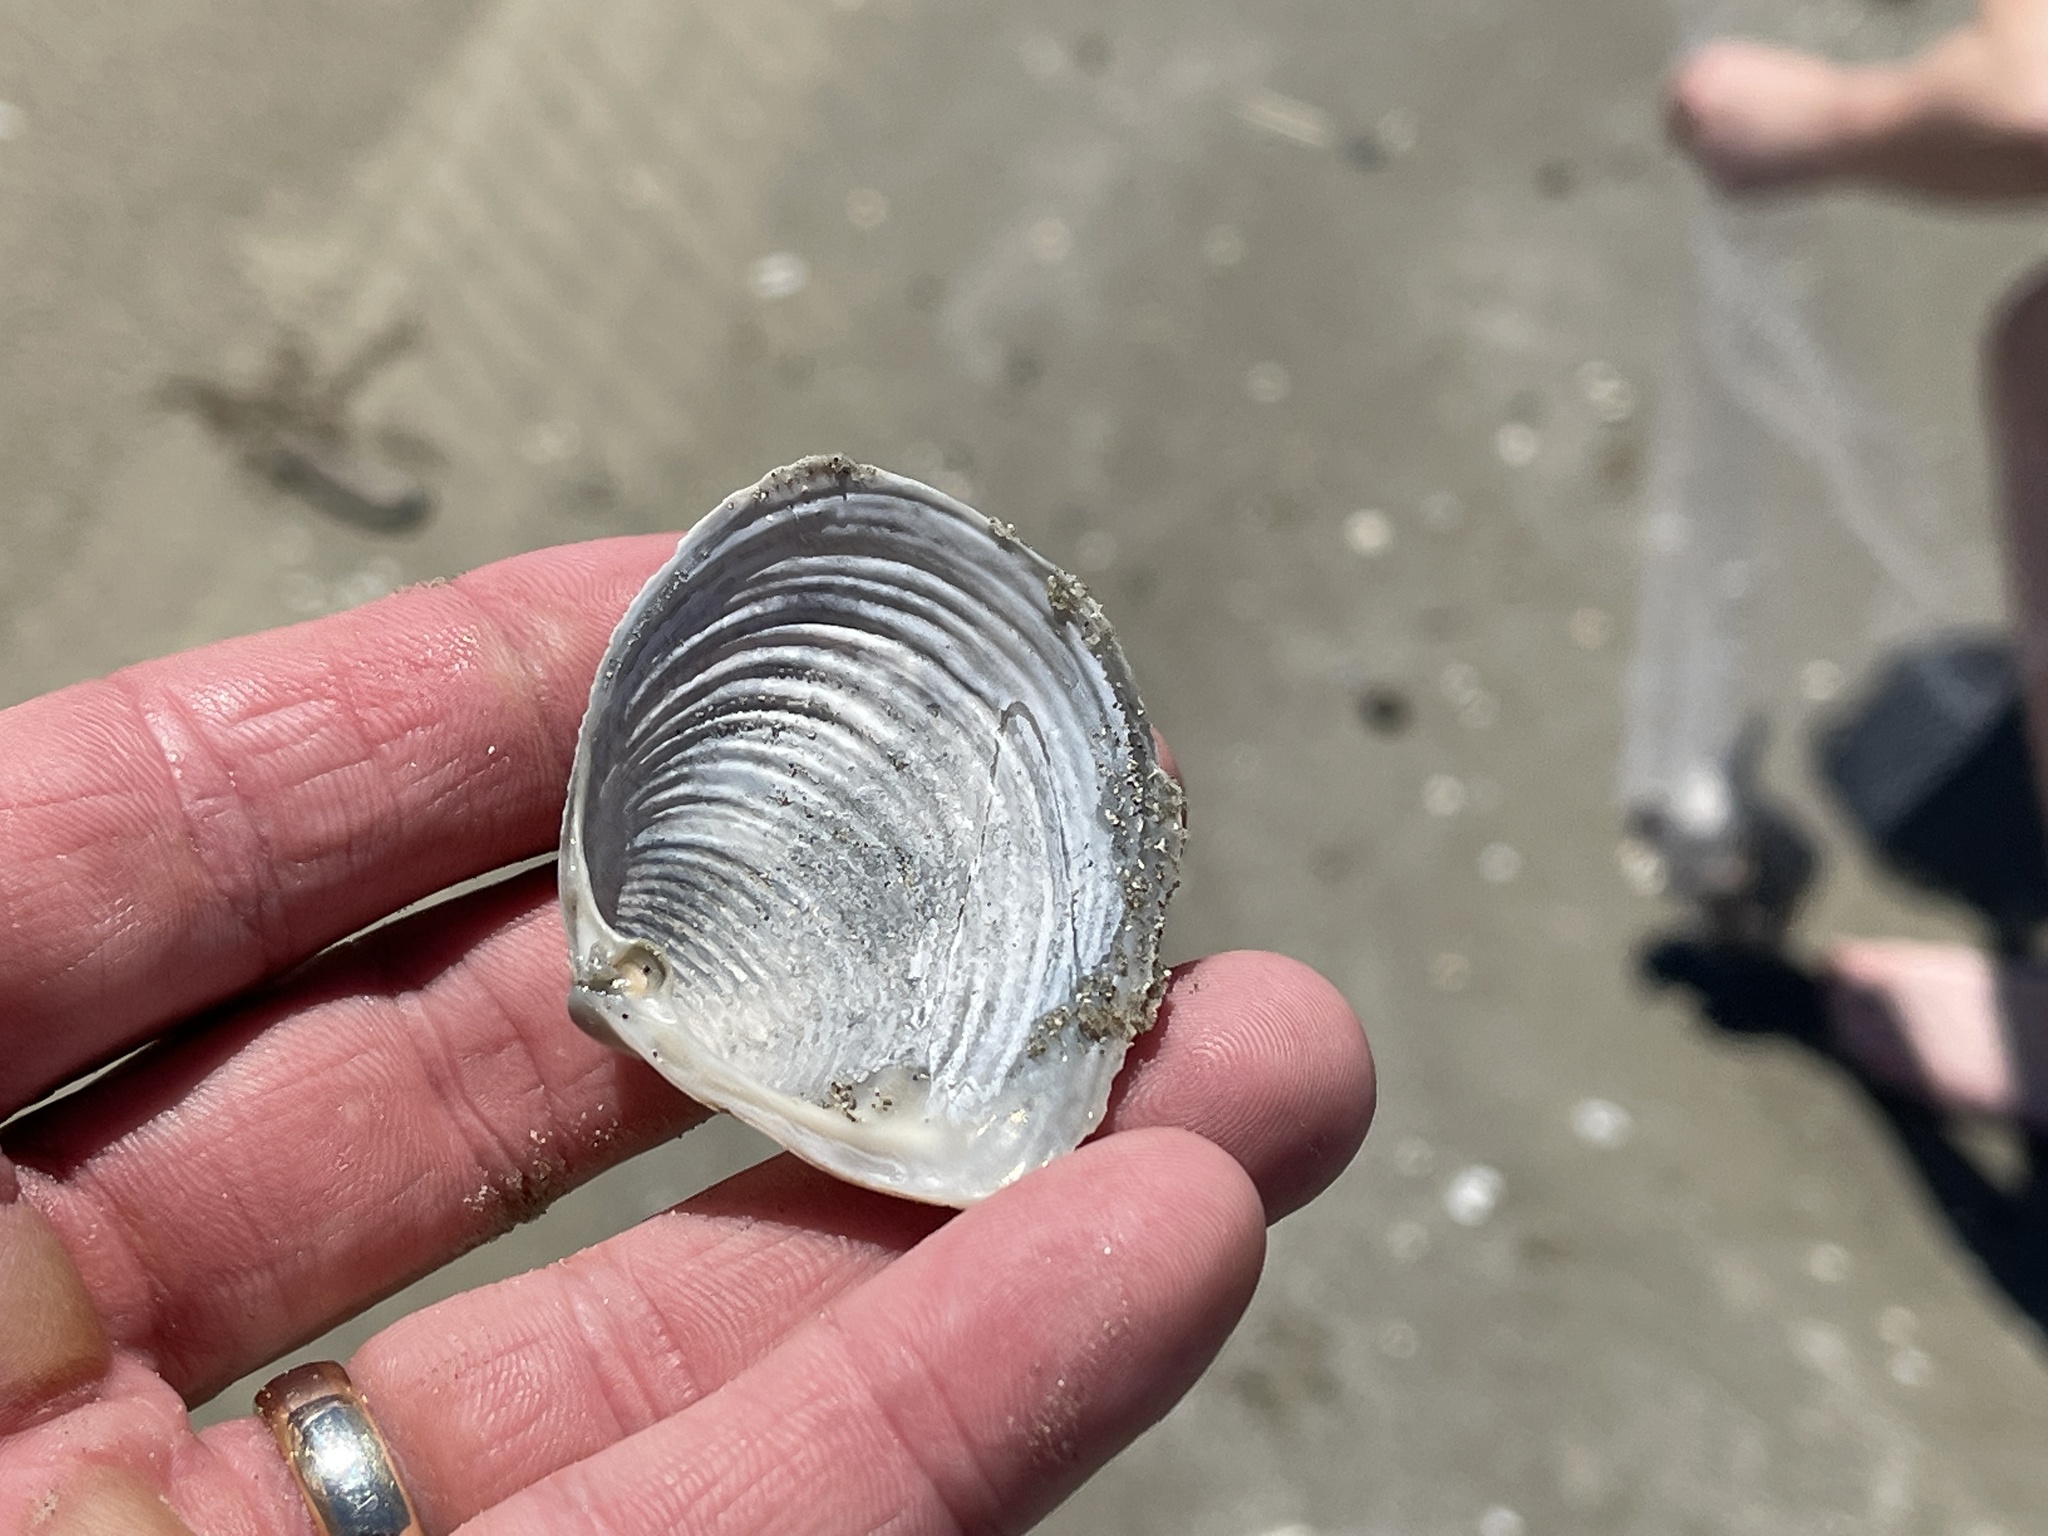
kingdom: Animalia
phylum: Mollusca
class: Bivalvia
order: Venerida
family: Anatinellidae
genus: Raeta
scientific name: Raeta plicatella
